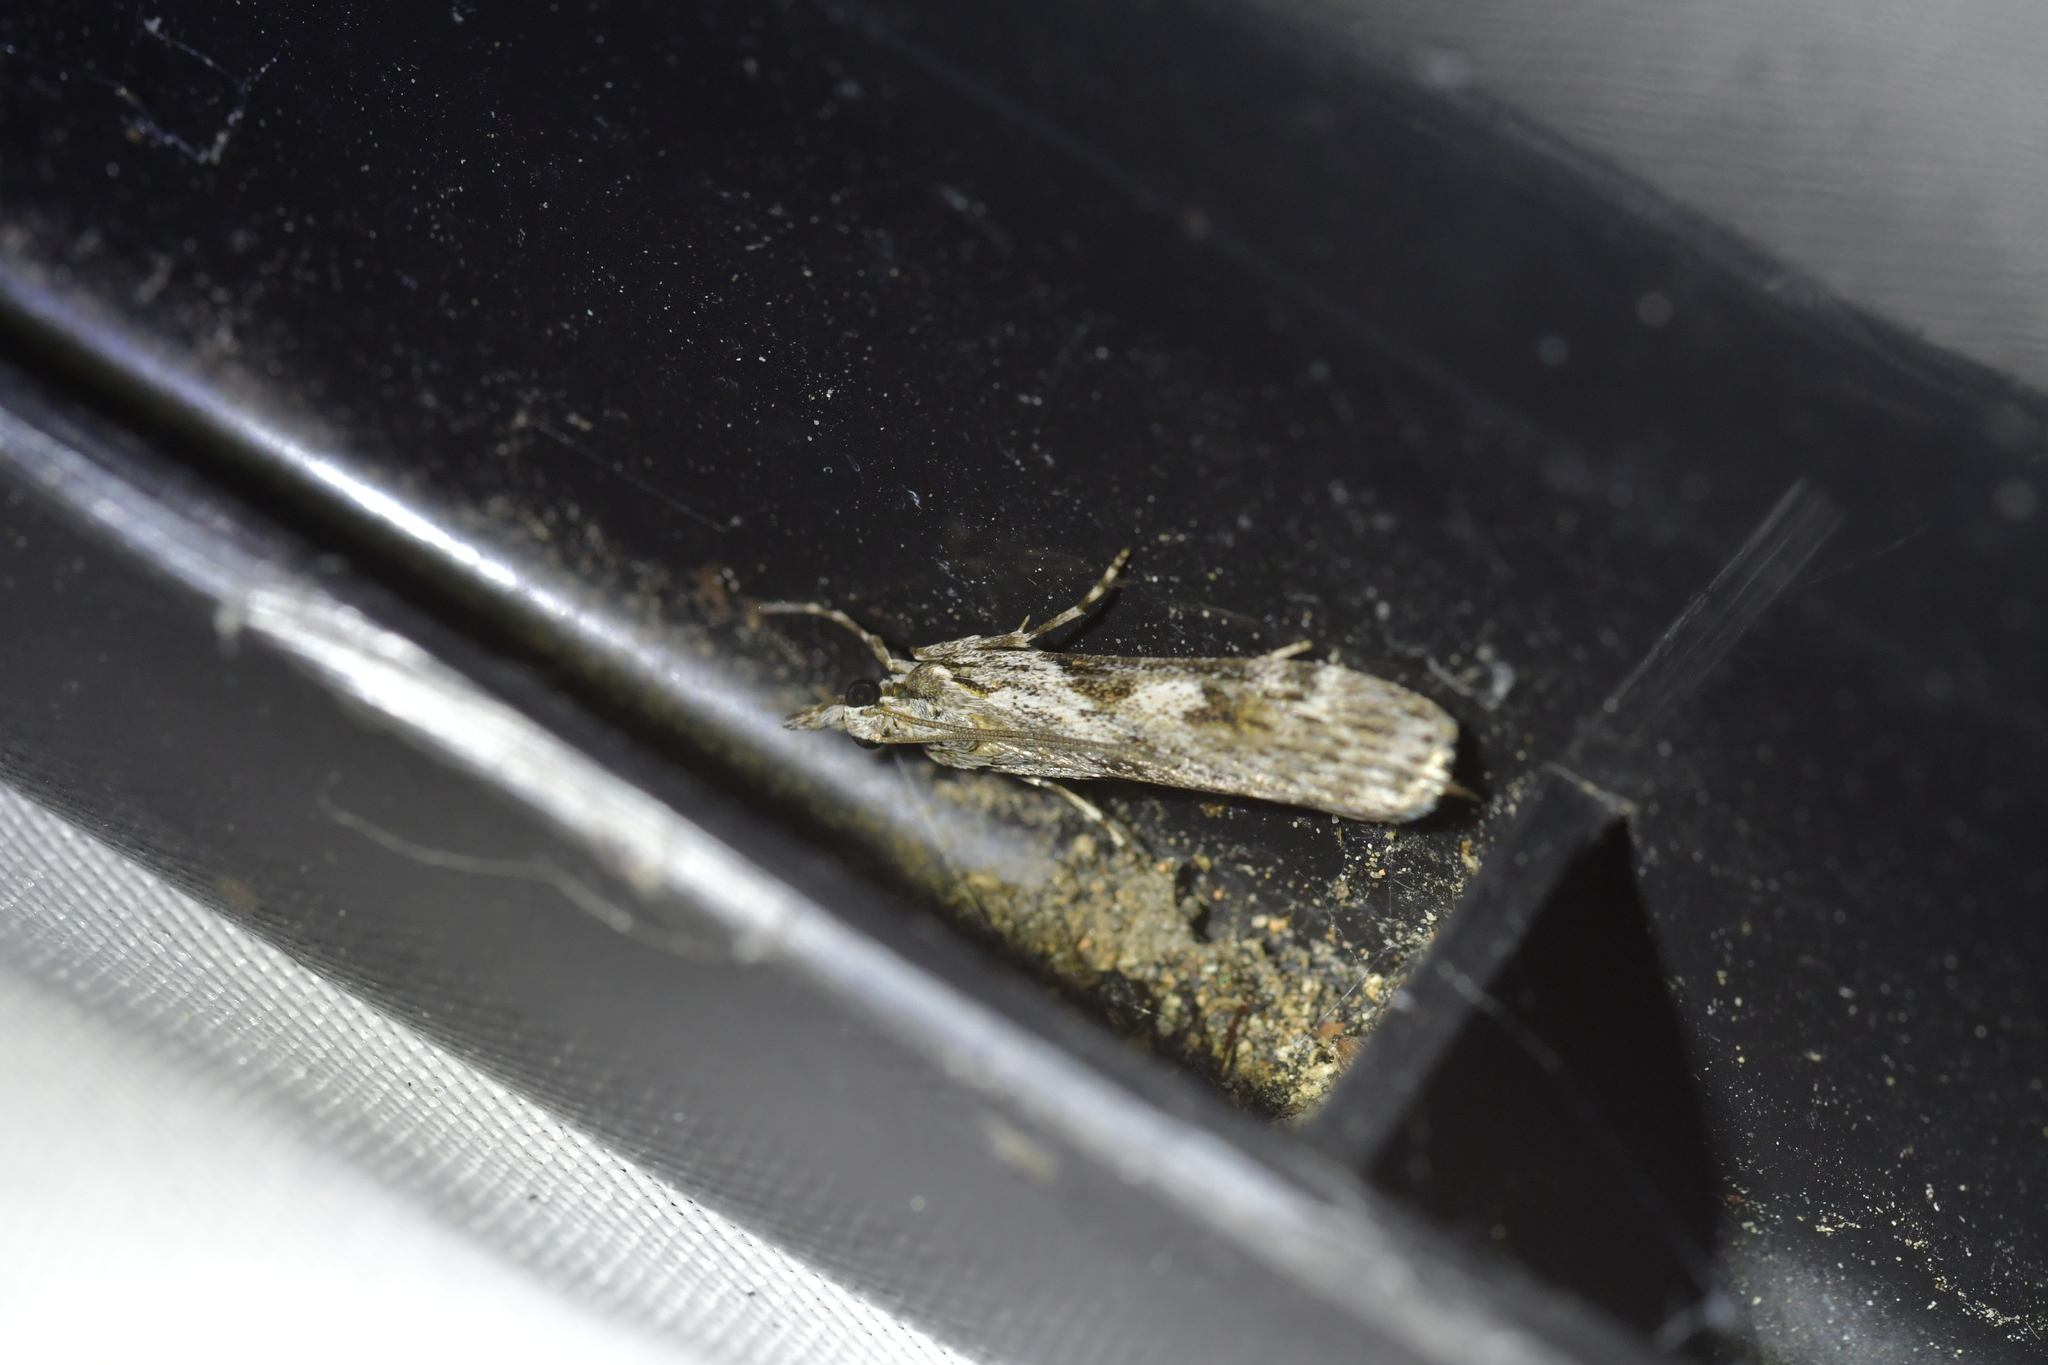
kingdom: Animalia
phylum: Arthropoda
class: Insecta
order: Lepidoptera
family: Crambidae
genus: Scoparia
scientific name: Scoparia halopis
